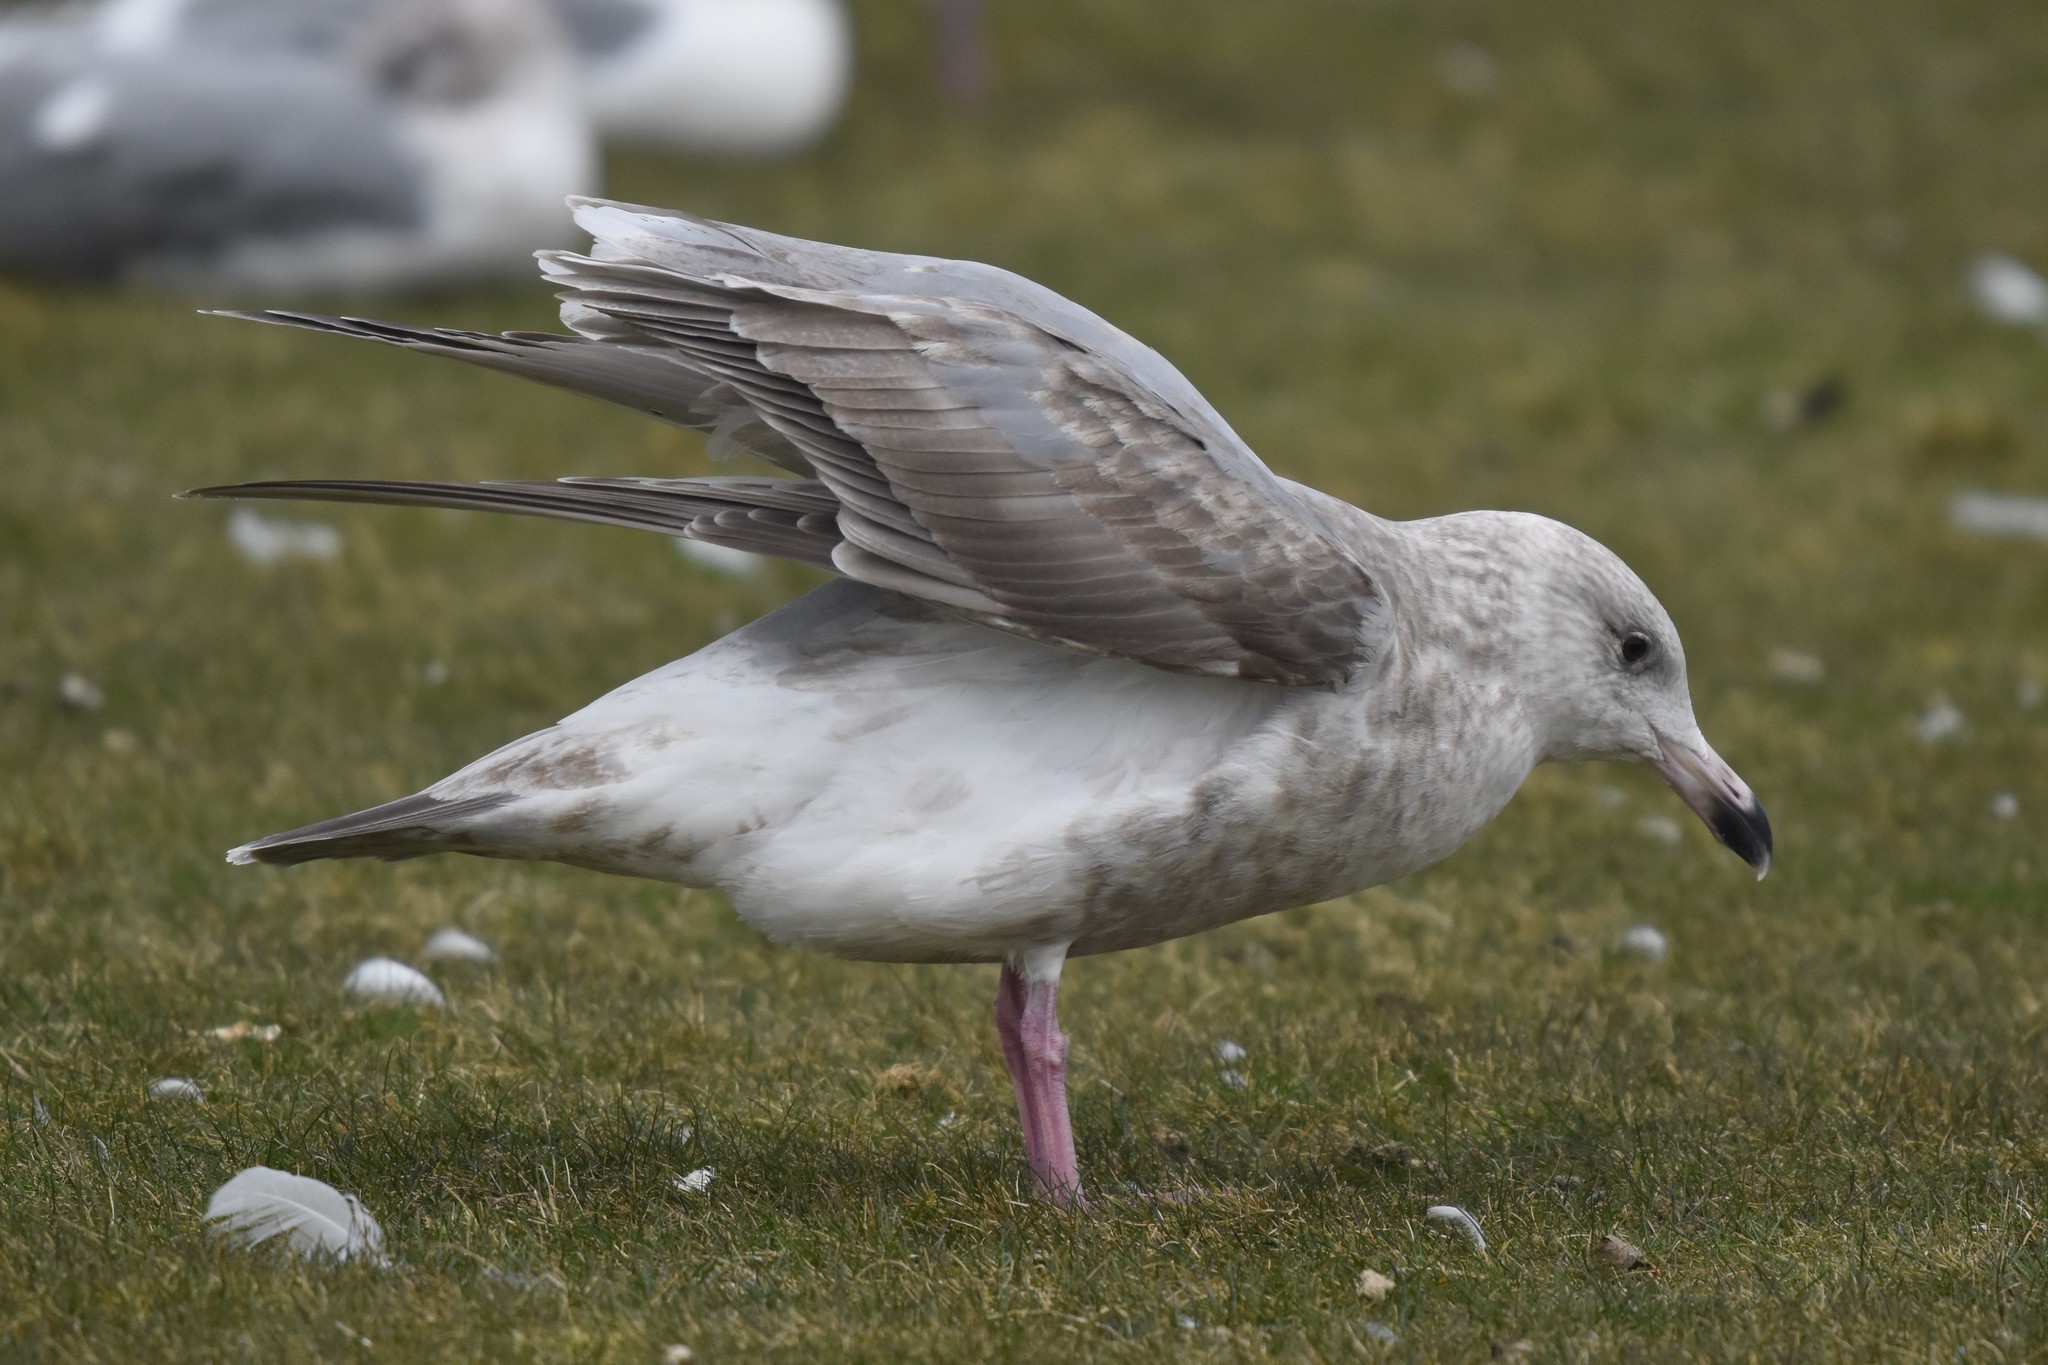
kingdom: Animalia
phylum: Chordata
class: Aves
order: Charadriiformes
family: Laridae
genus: Larus
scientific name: Larus
